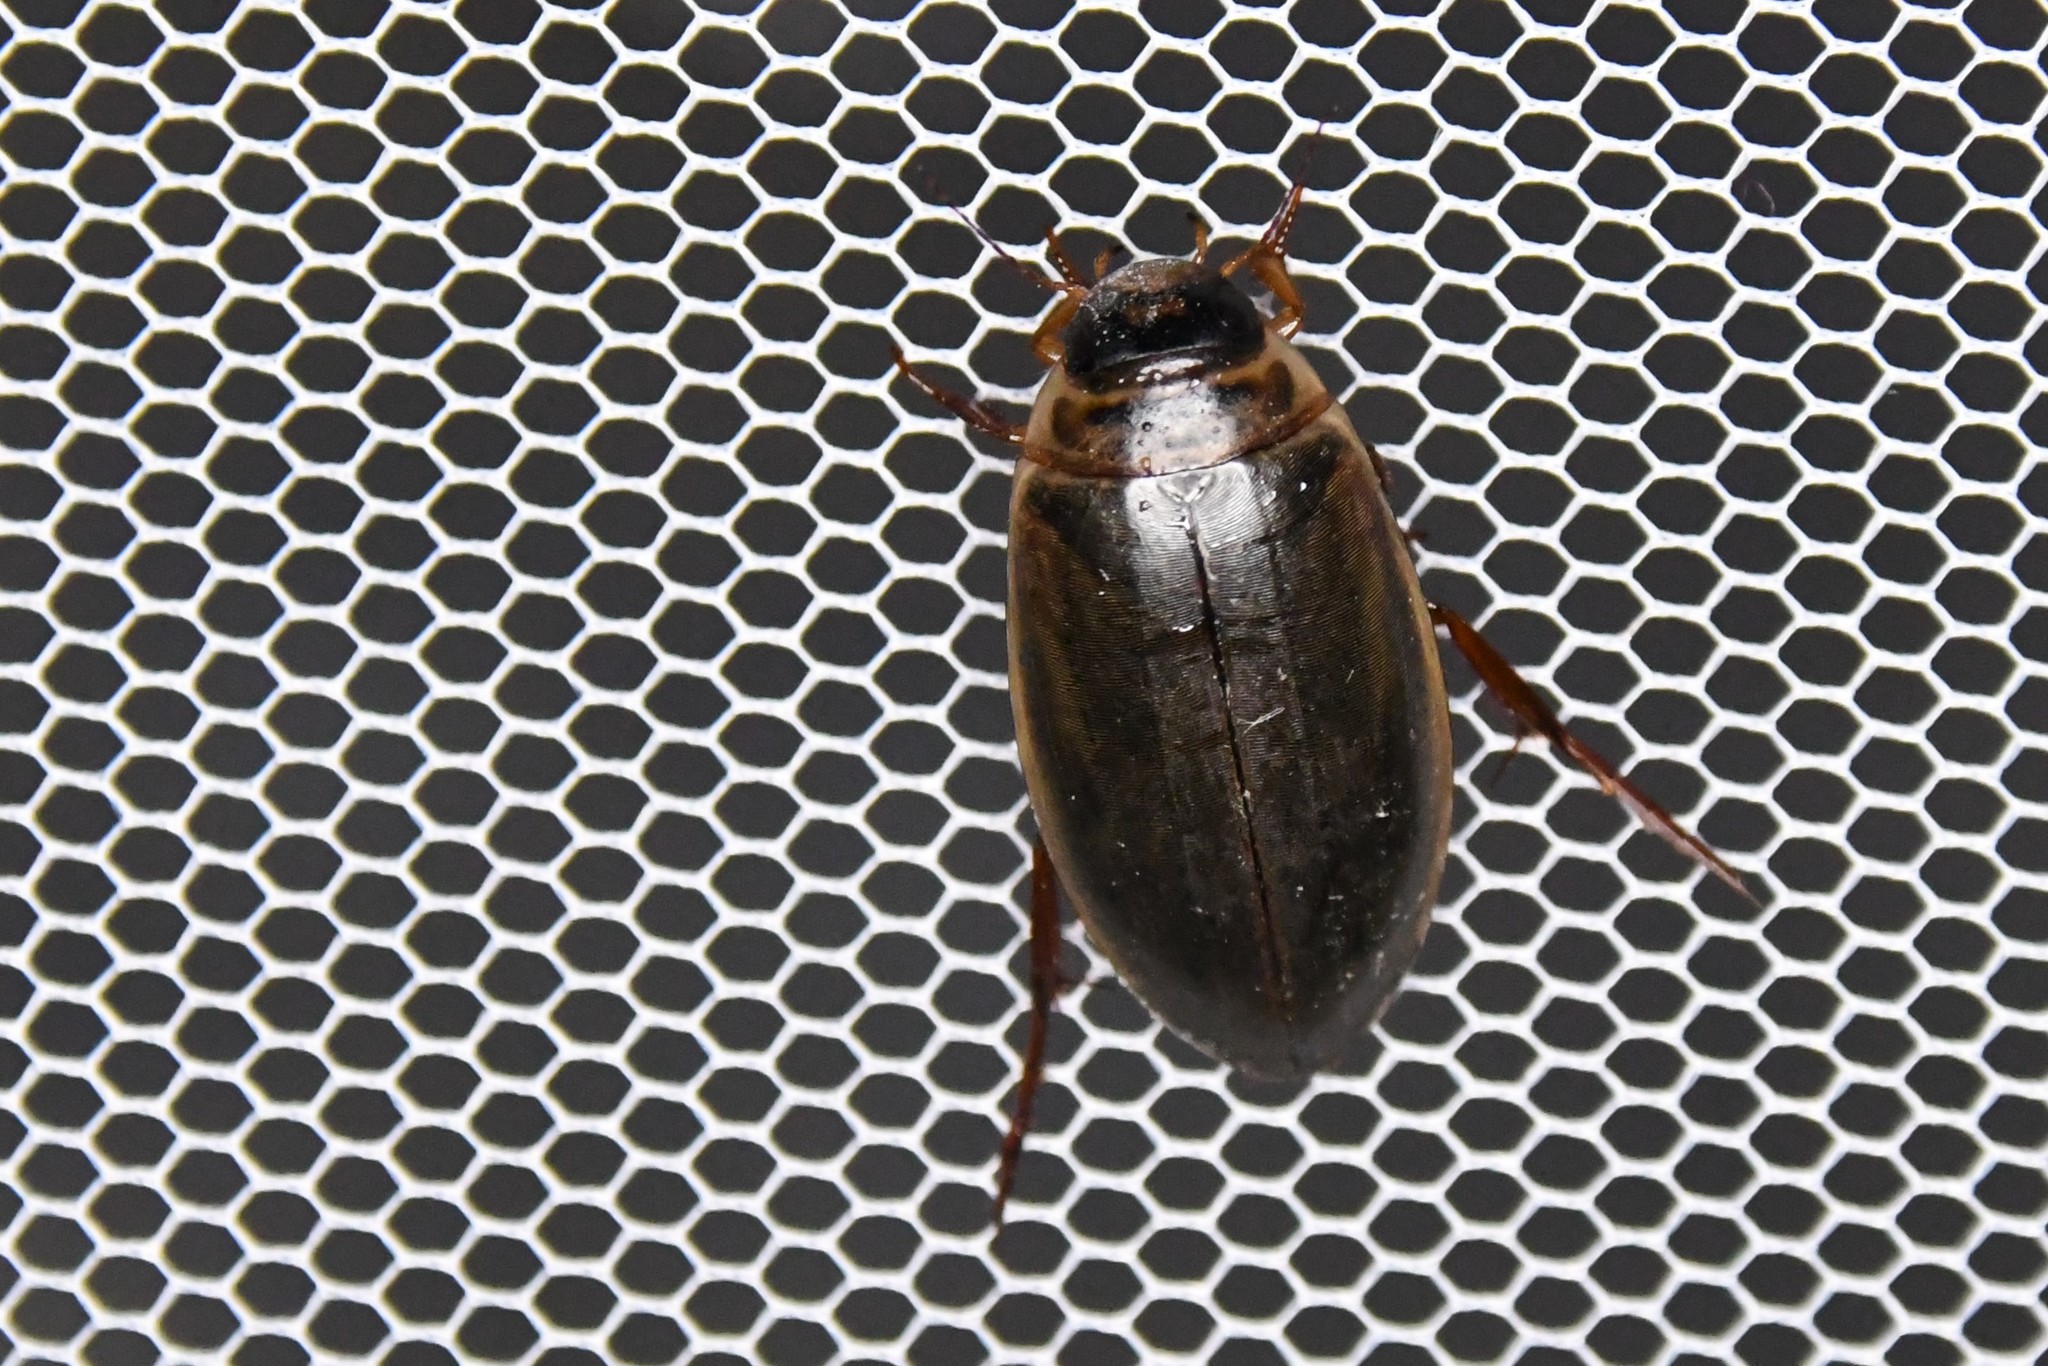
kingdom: Animalia
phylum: Arthropoda
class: Insecta
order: Coleoptera
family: Dytiscidae
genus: Colymbetes
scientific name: Colymbetes sculptilis
